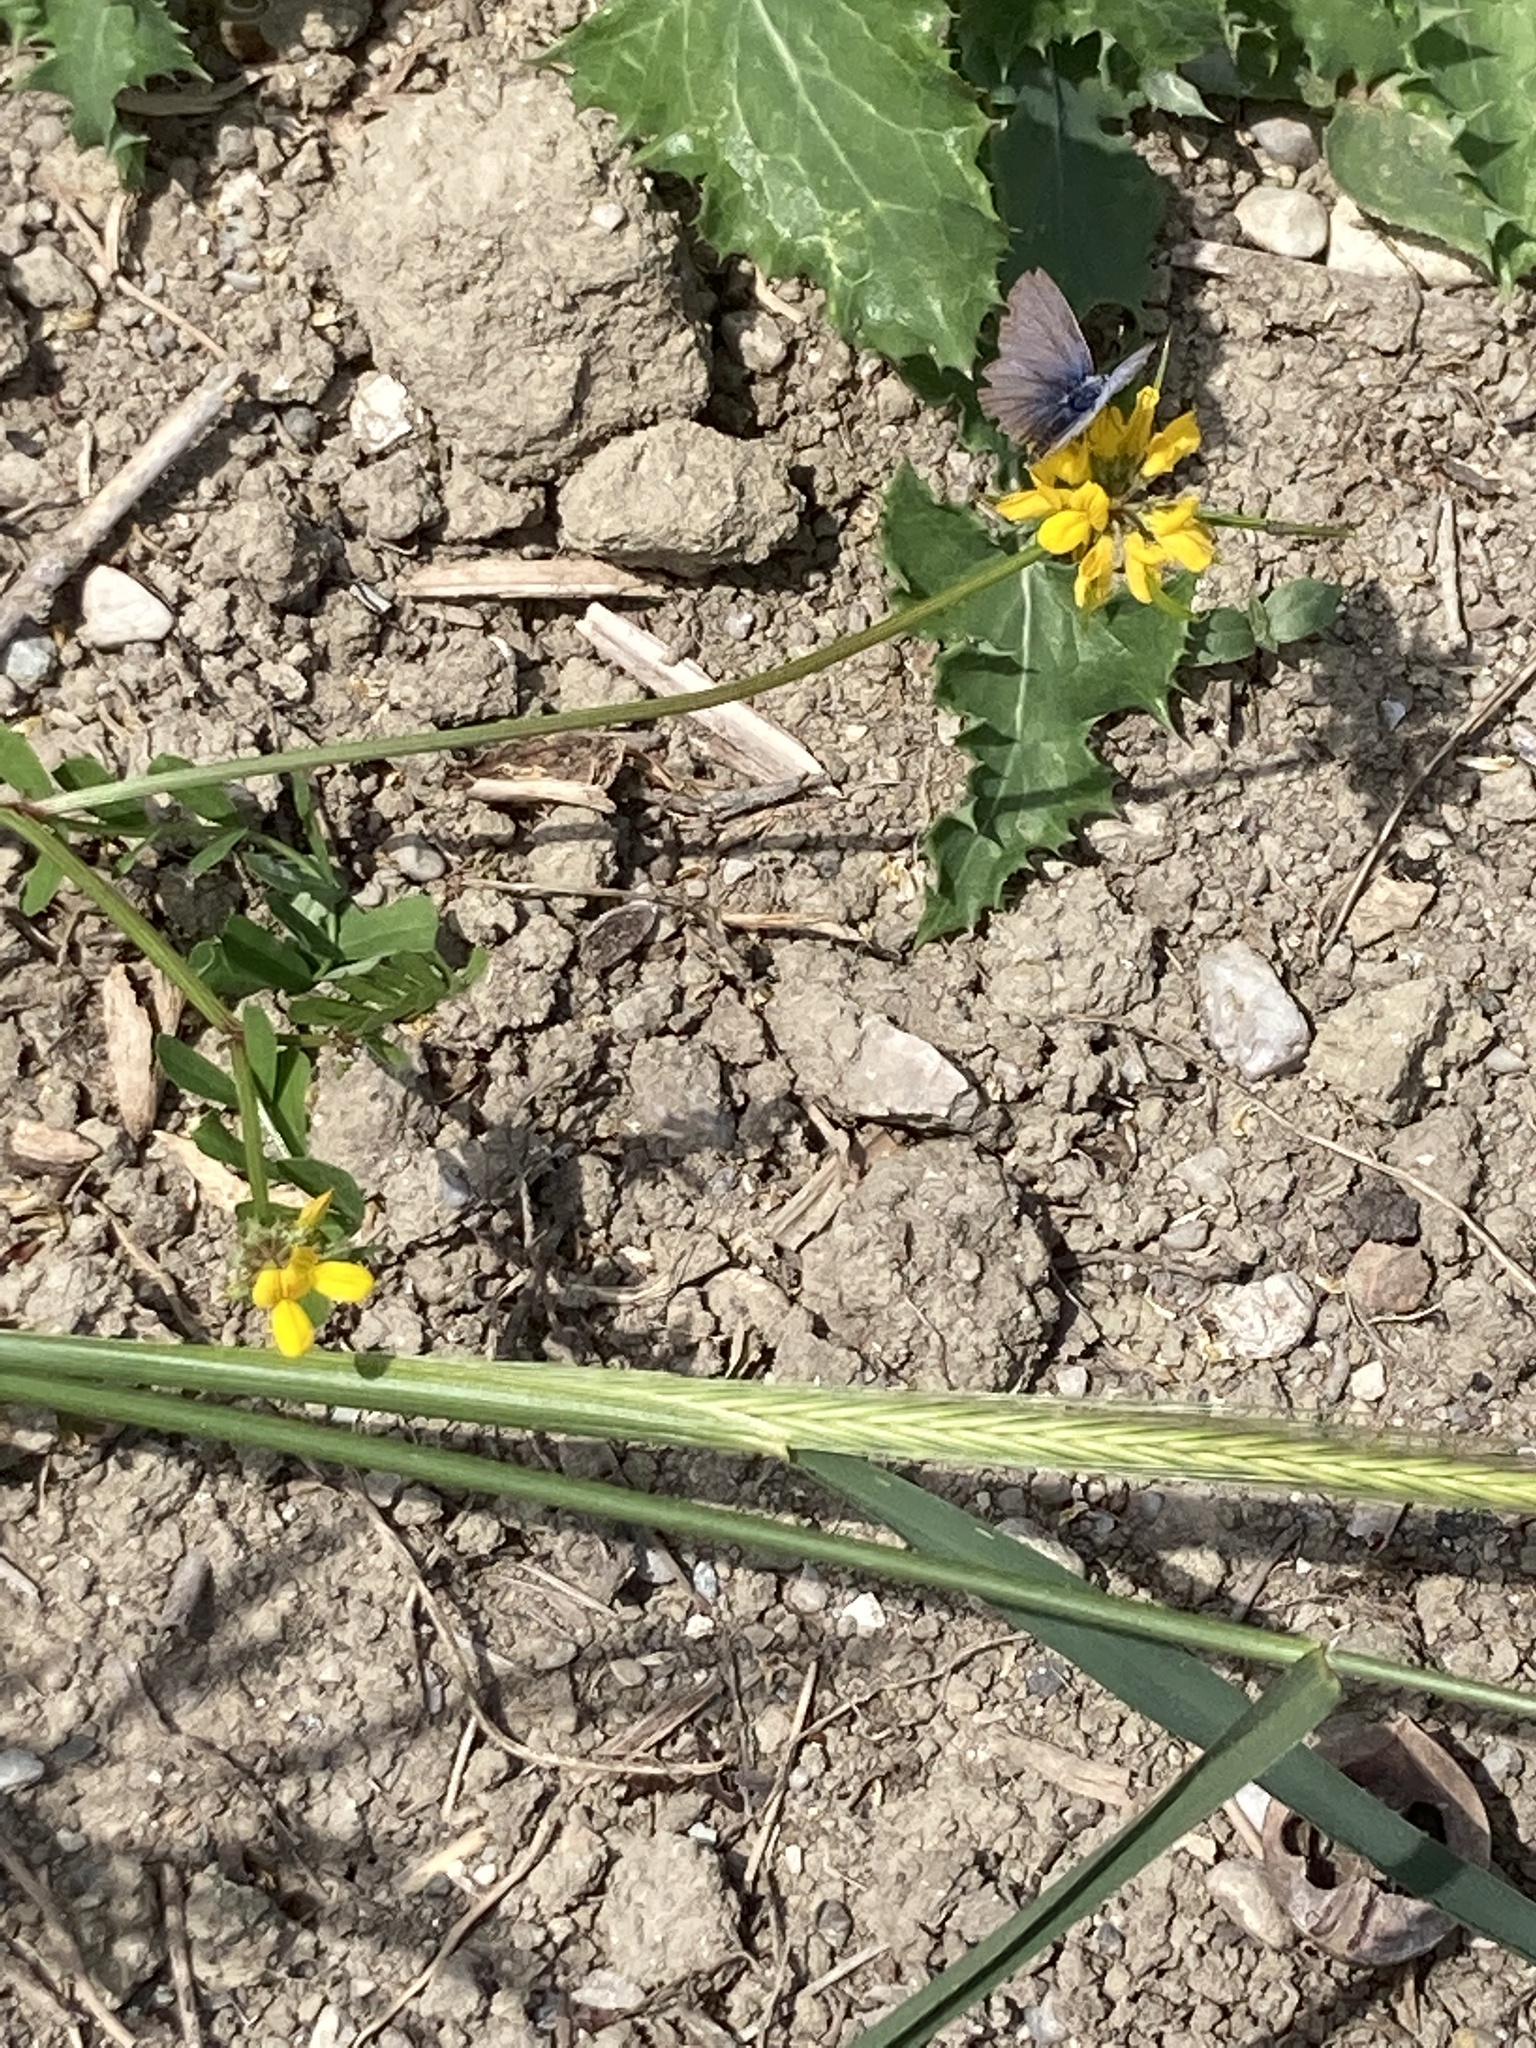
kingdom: Plantae
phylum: Tracheophyta
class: Magnoliopsida
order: Fabales
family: Fabaceae
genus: Coronilla
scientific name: Coronilla securidaca
